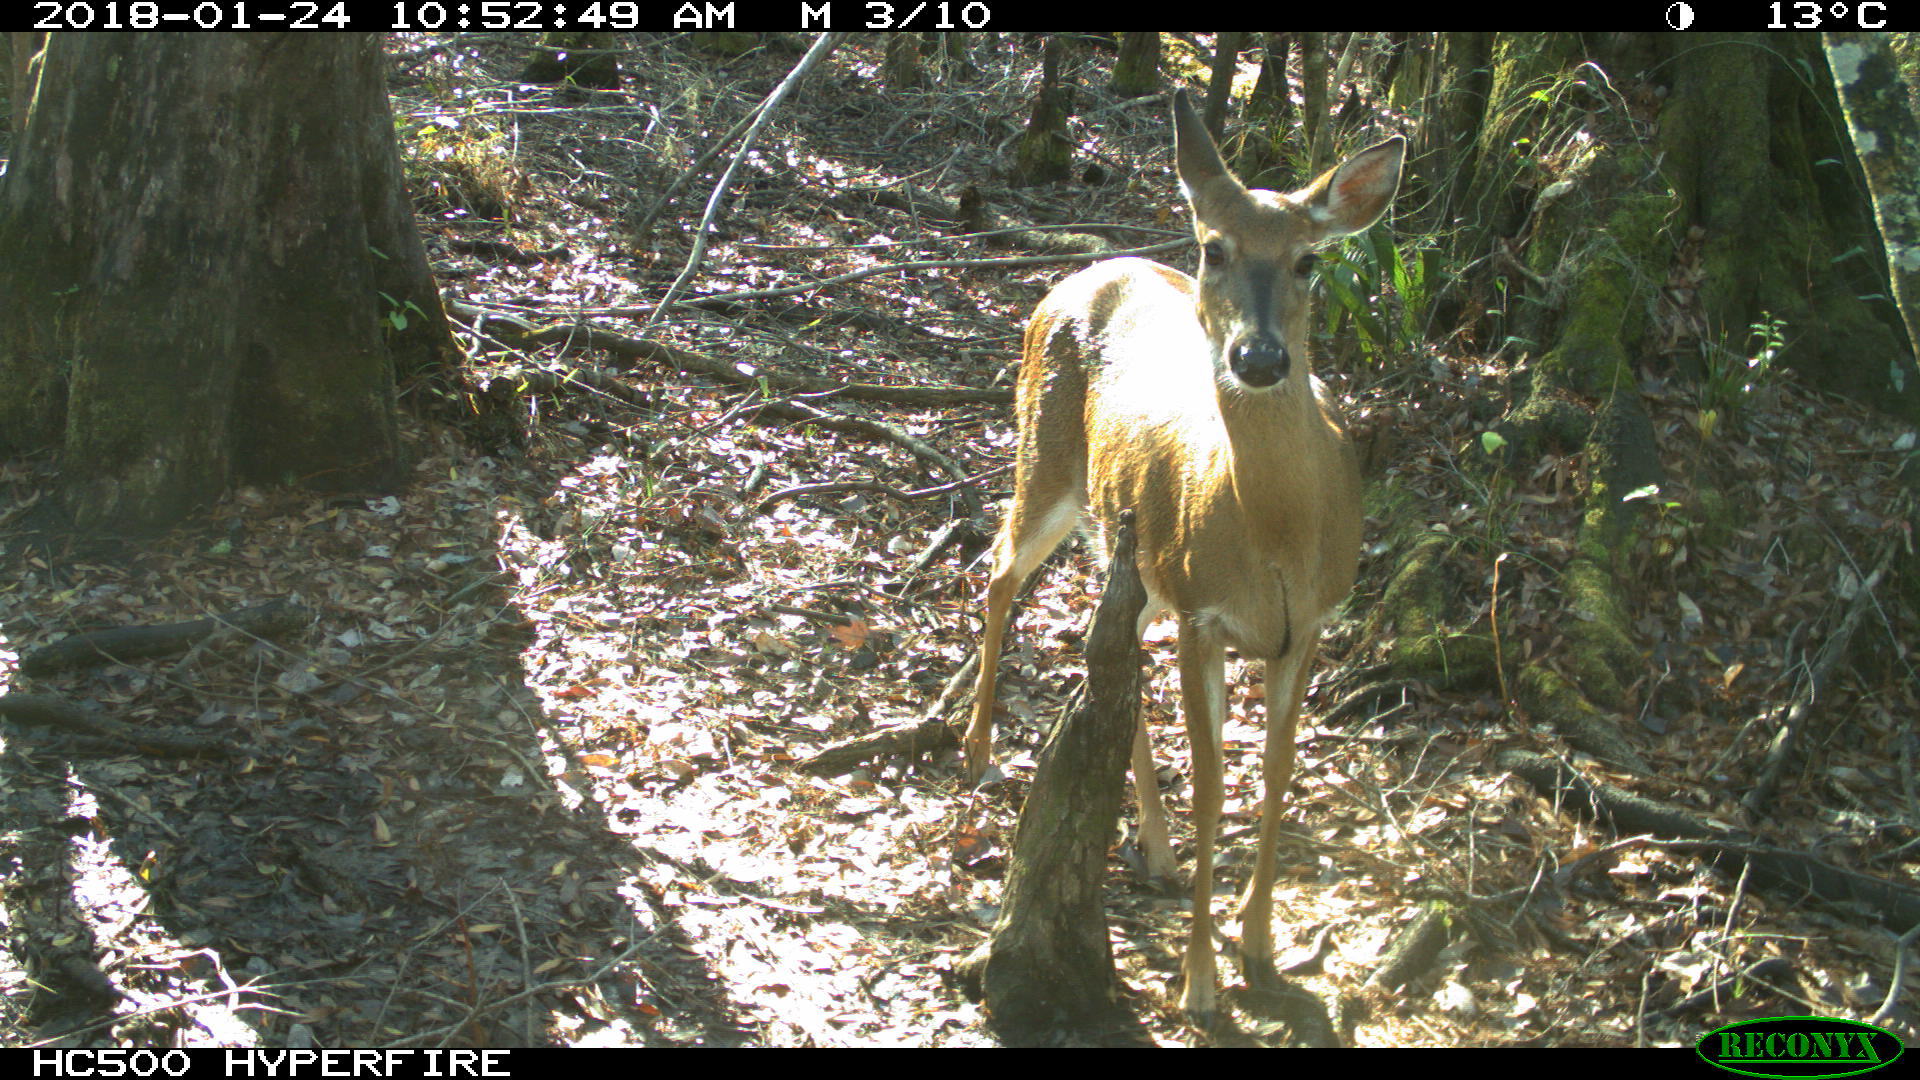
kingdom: Animalia
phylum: Chordata
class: Mammalia
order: Artiodactyla
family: Cervidae
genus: Odocoileus
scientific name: Odocoileus virginianus
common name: White-tailed deer
